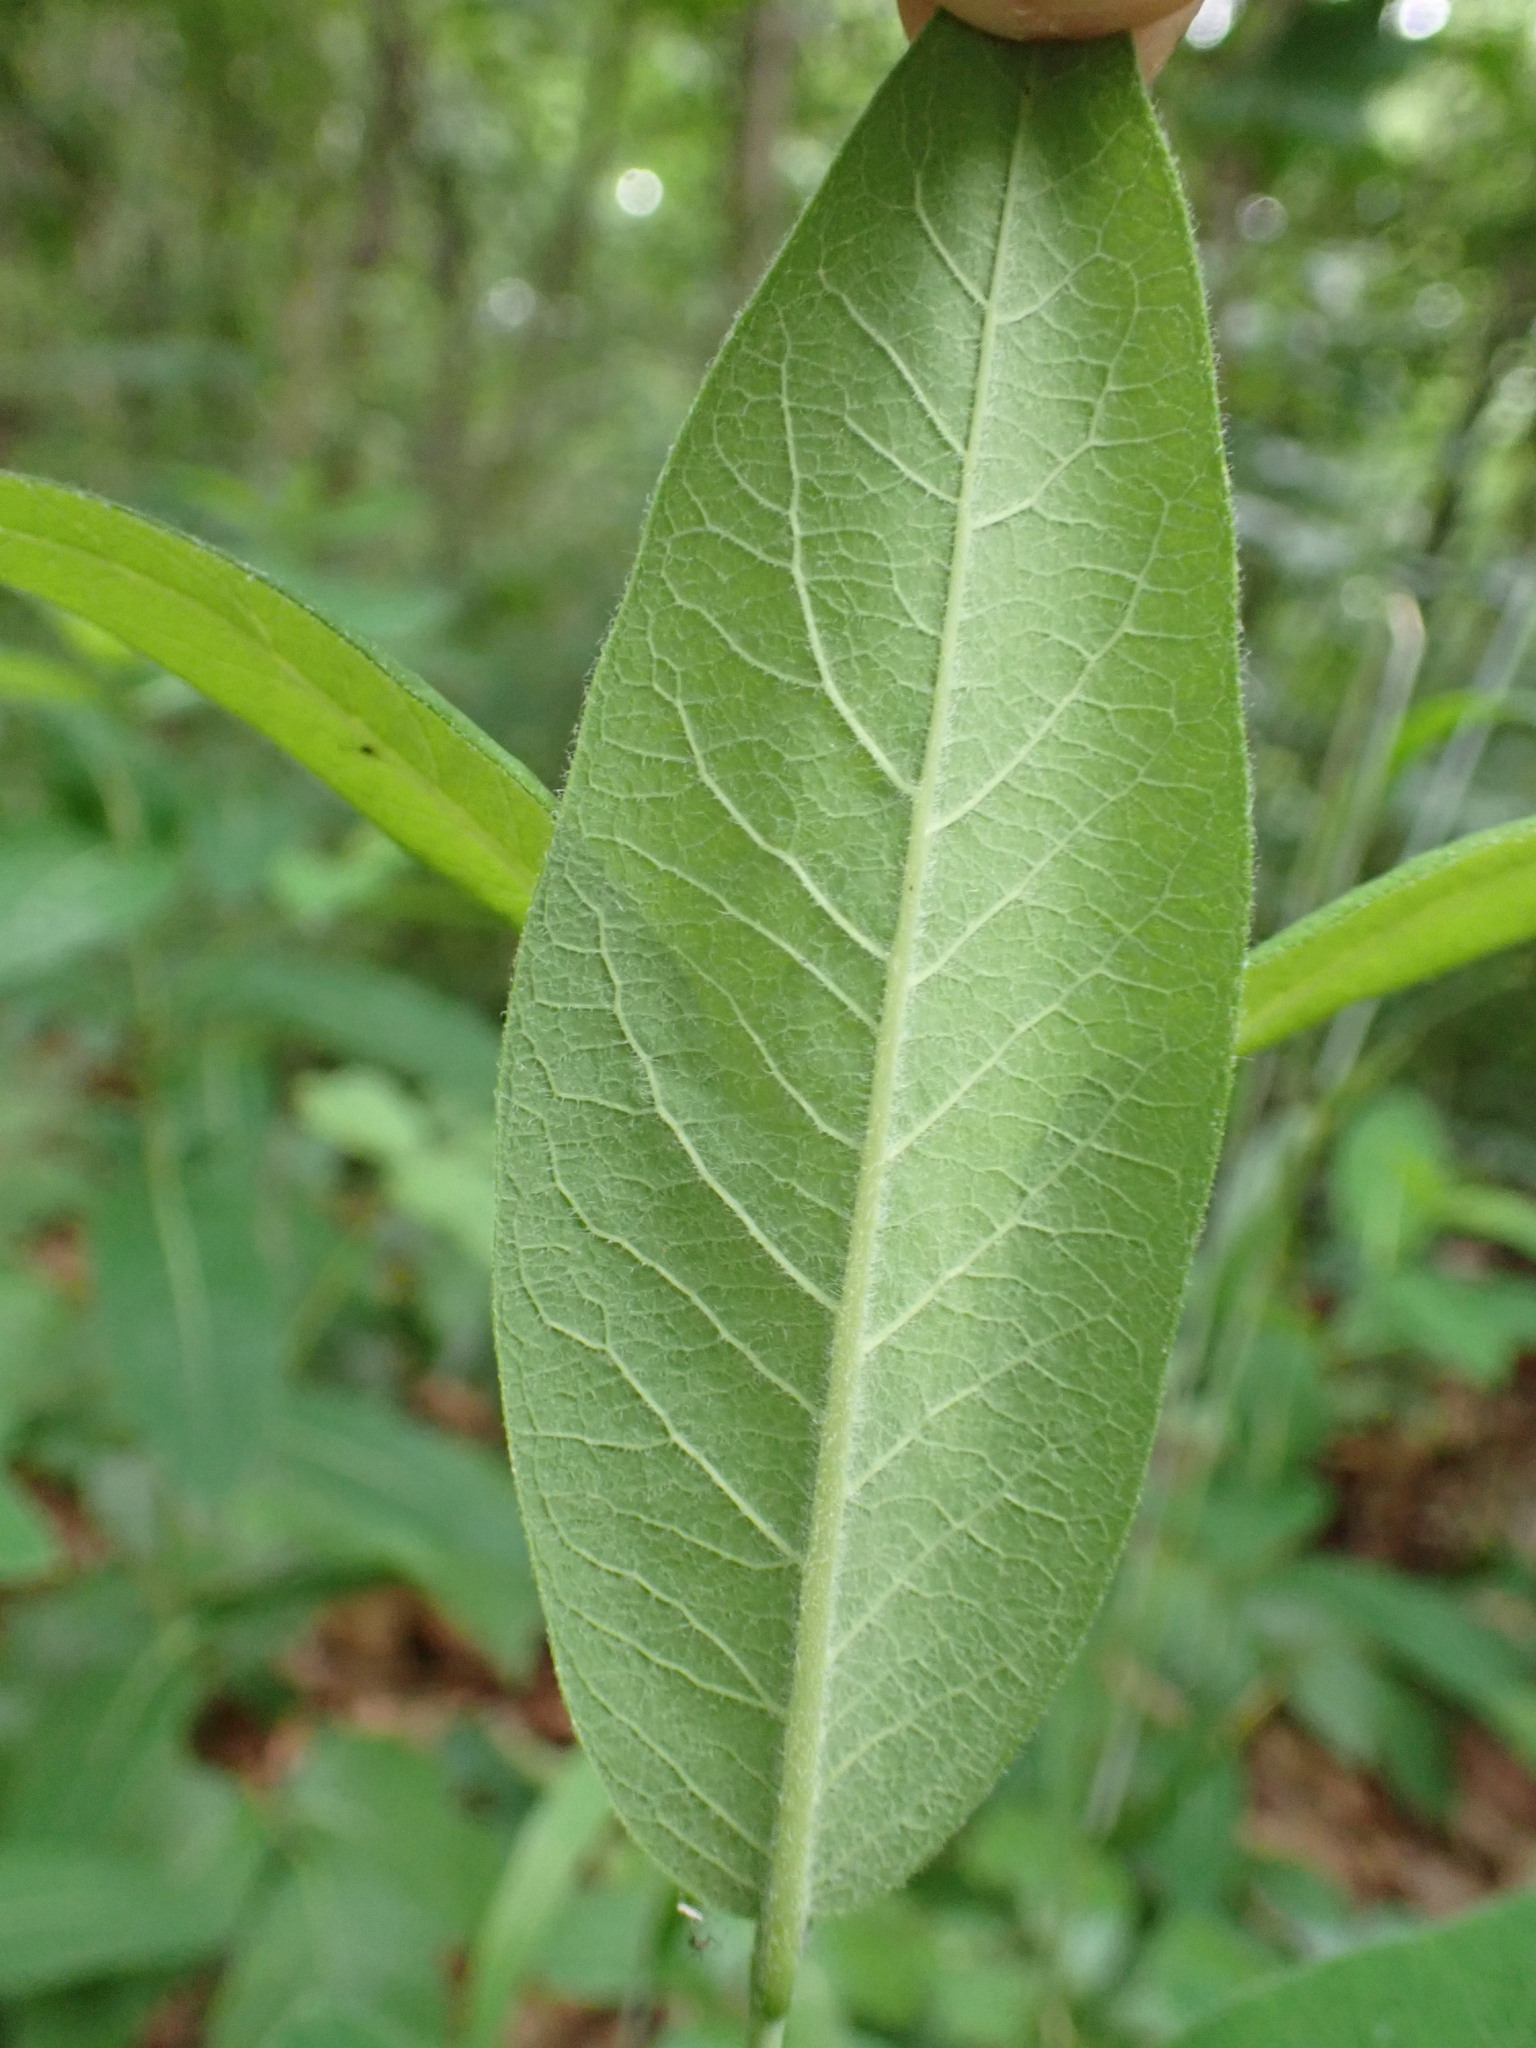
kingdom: Plantae
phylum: Tracheophyta
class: Magnoliopsida
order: Gentianales
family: Apocynaceae
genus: Apocynum
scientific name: Apocynum cannabinum
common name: Hemp dogbane
